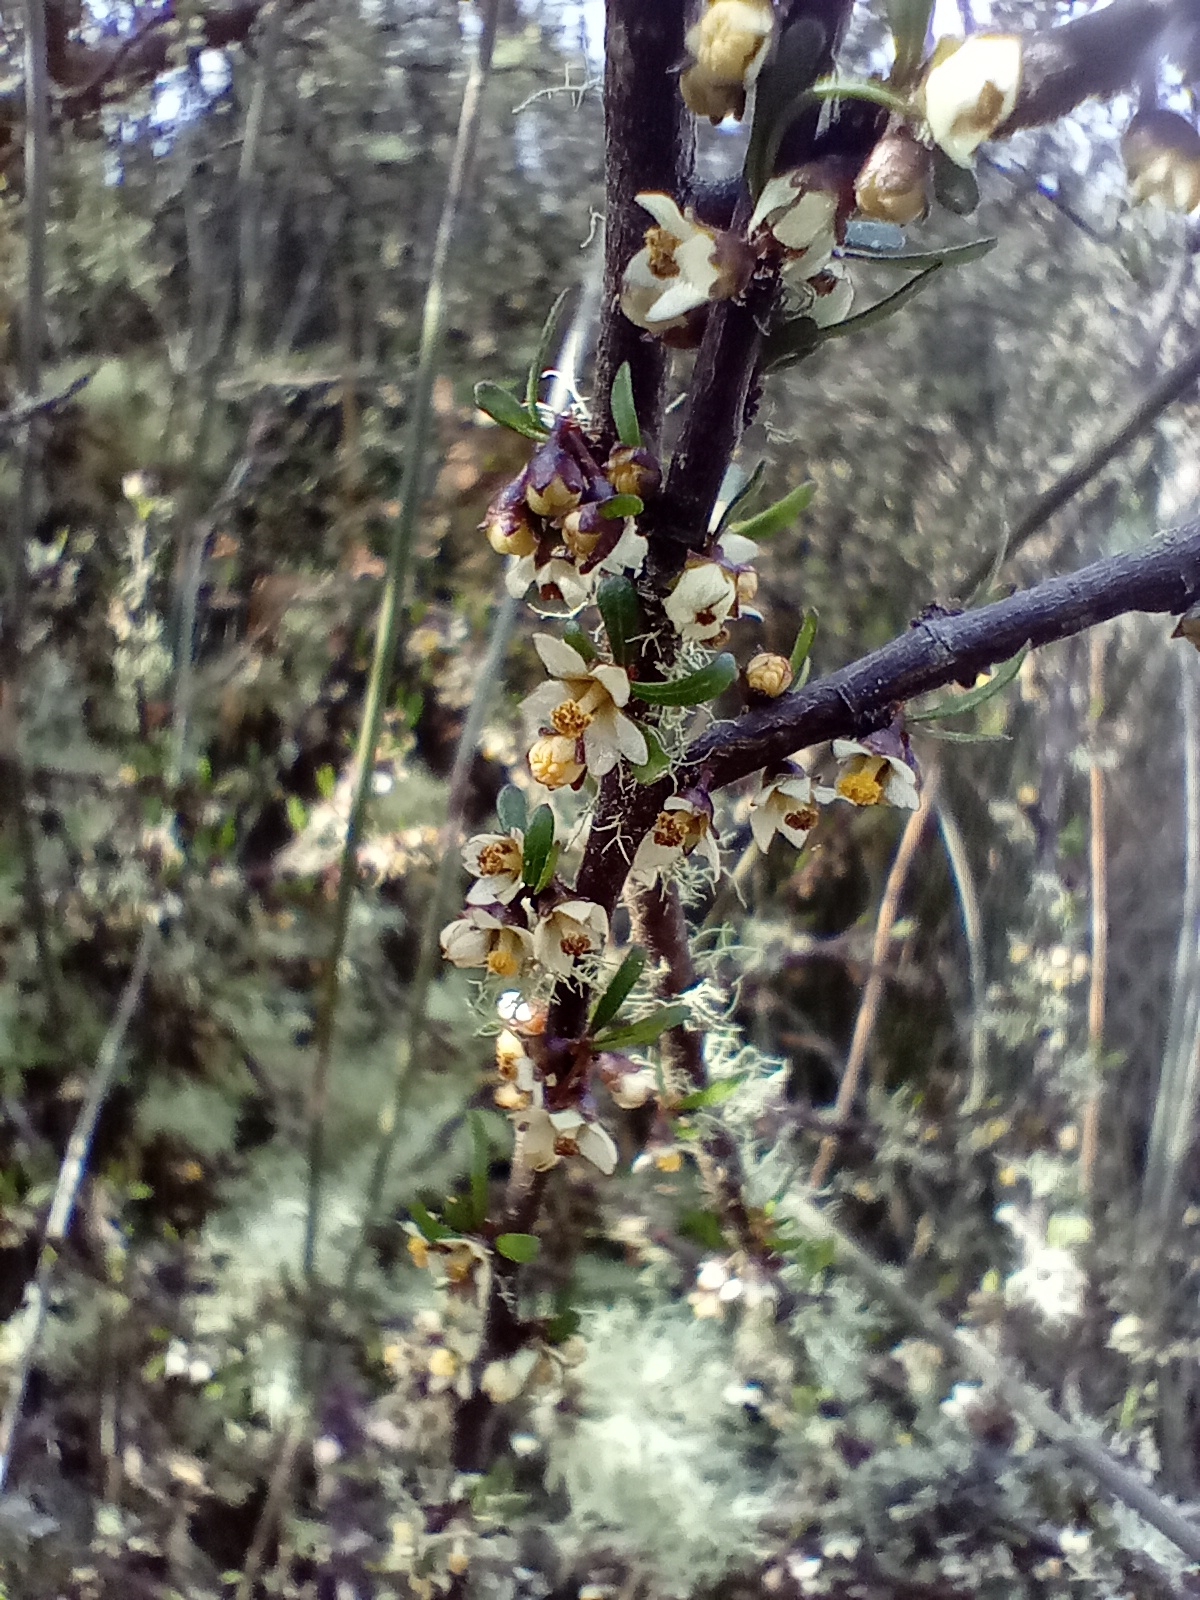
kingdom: Plantae
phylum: Tracheophyta
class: Magnoliopsida
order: Malvales
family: Malvaceae
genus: Plagianthus
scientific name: Plagianthus divaricatus
